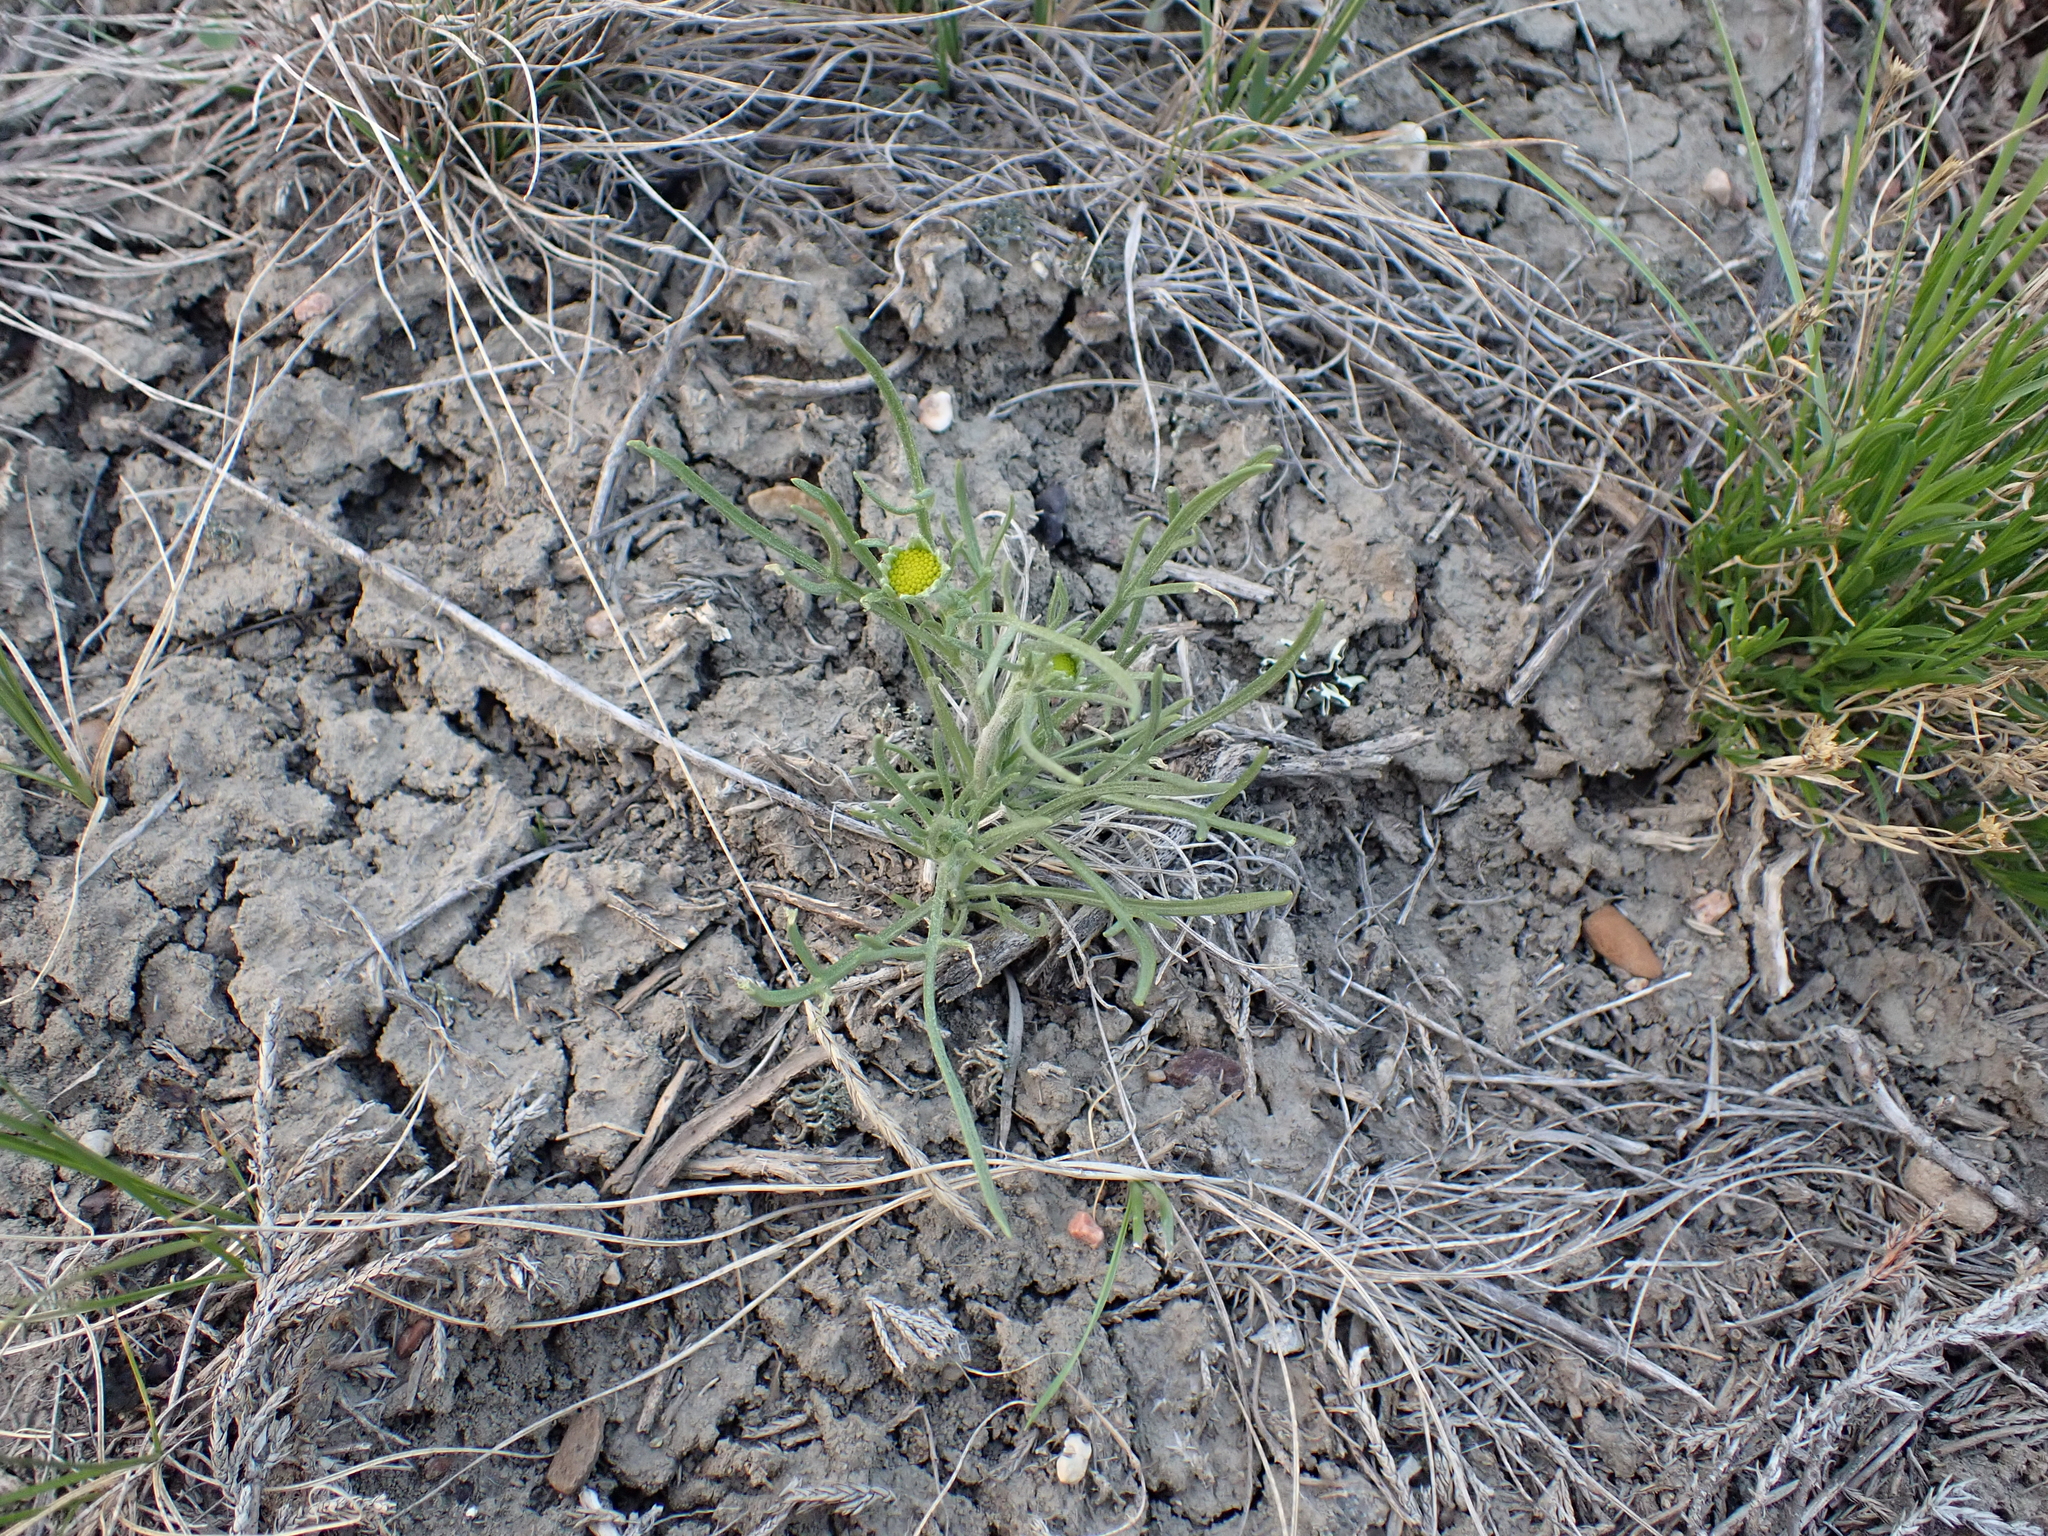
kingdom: Plantae
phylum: Tracheophyta
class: Magnoliopsida
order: Asterales
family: Asteraceae
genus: Hymenoxys
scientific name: Hymenoxys richardsonii
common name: Pingue rubberweed
